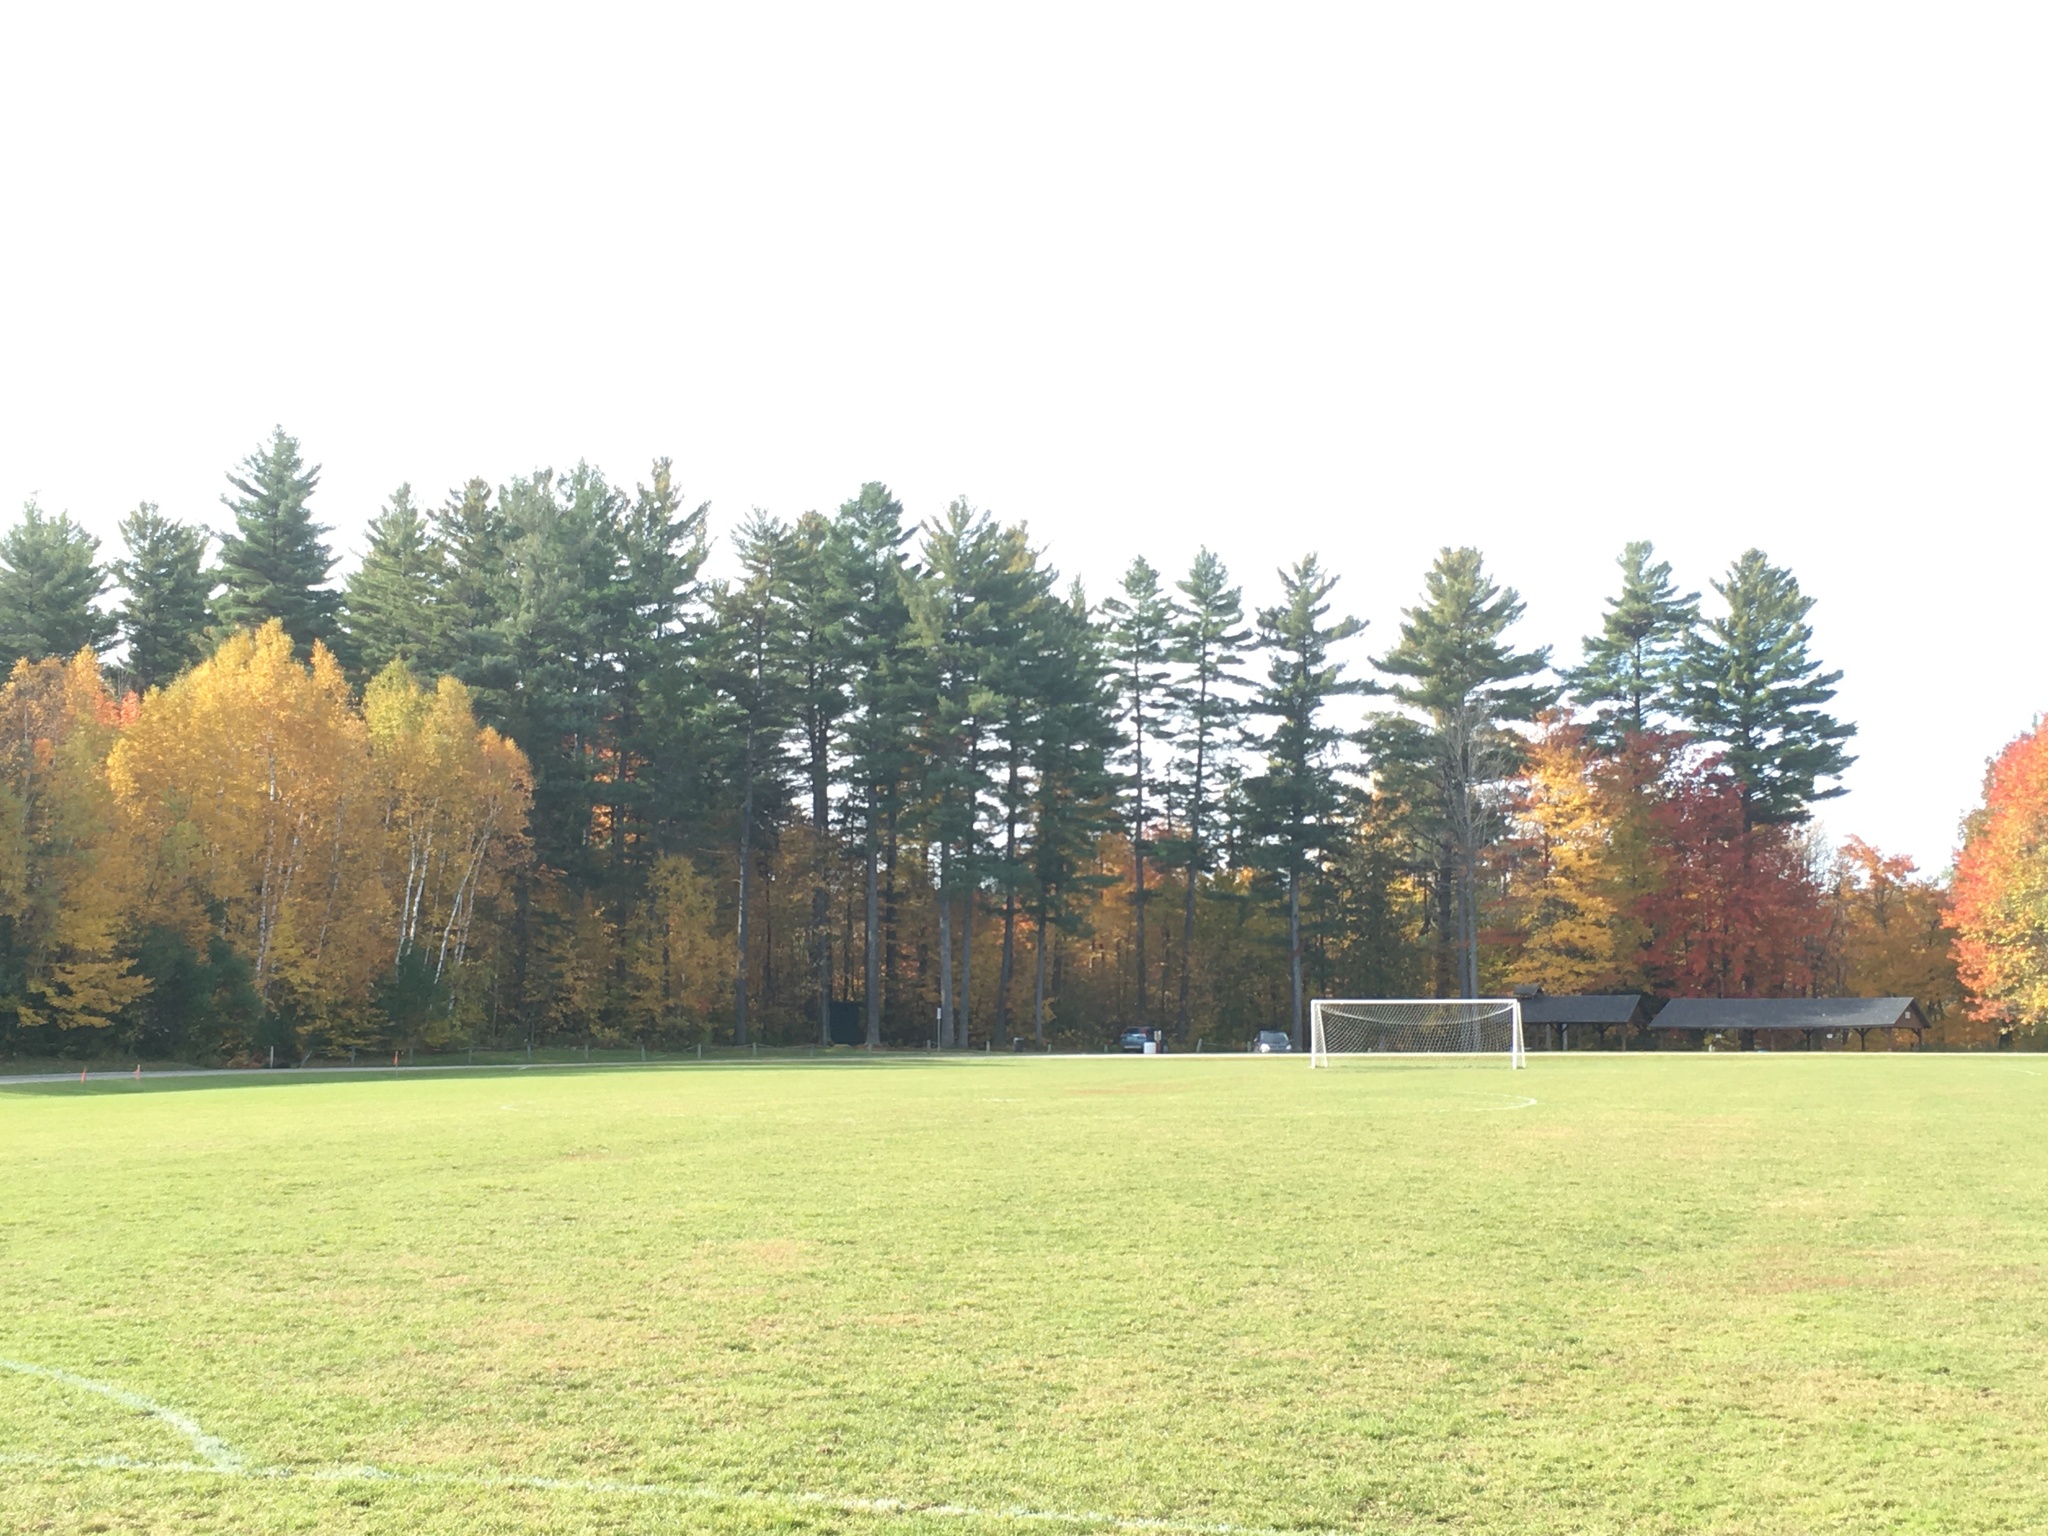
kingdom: Plantae
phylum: Tracheophyta
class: Pinopsida
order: Pinales
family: Pinaceae
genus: Pinus
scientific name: Pinus strobus
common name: Weymouth pine
